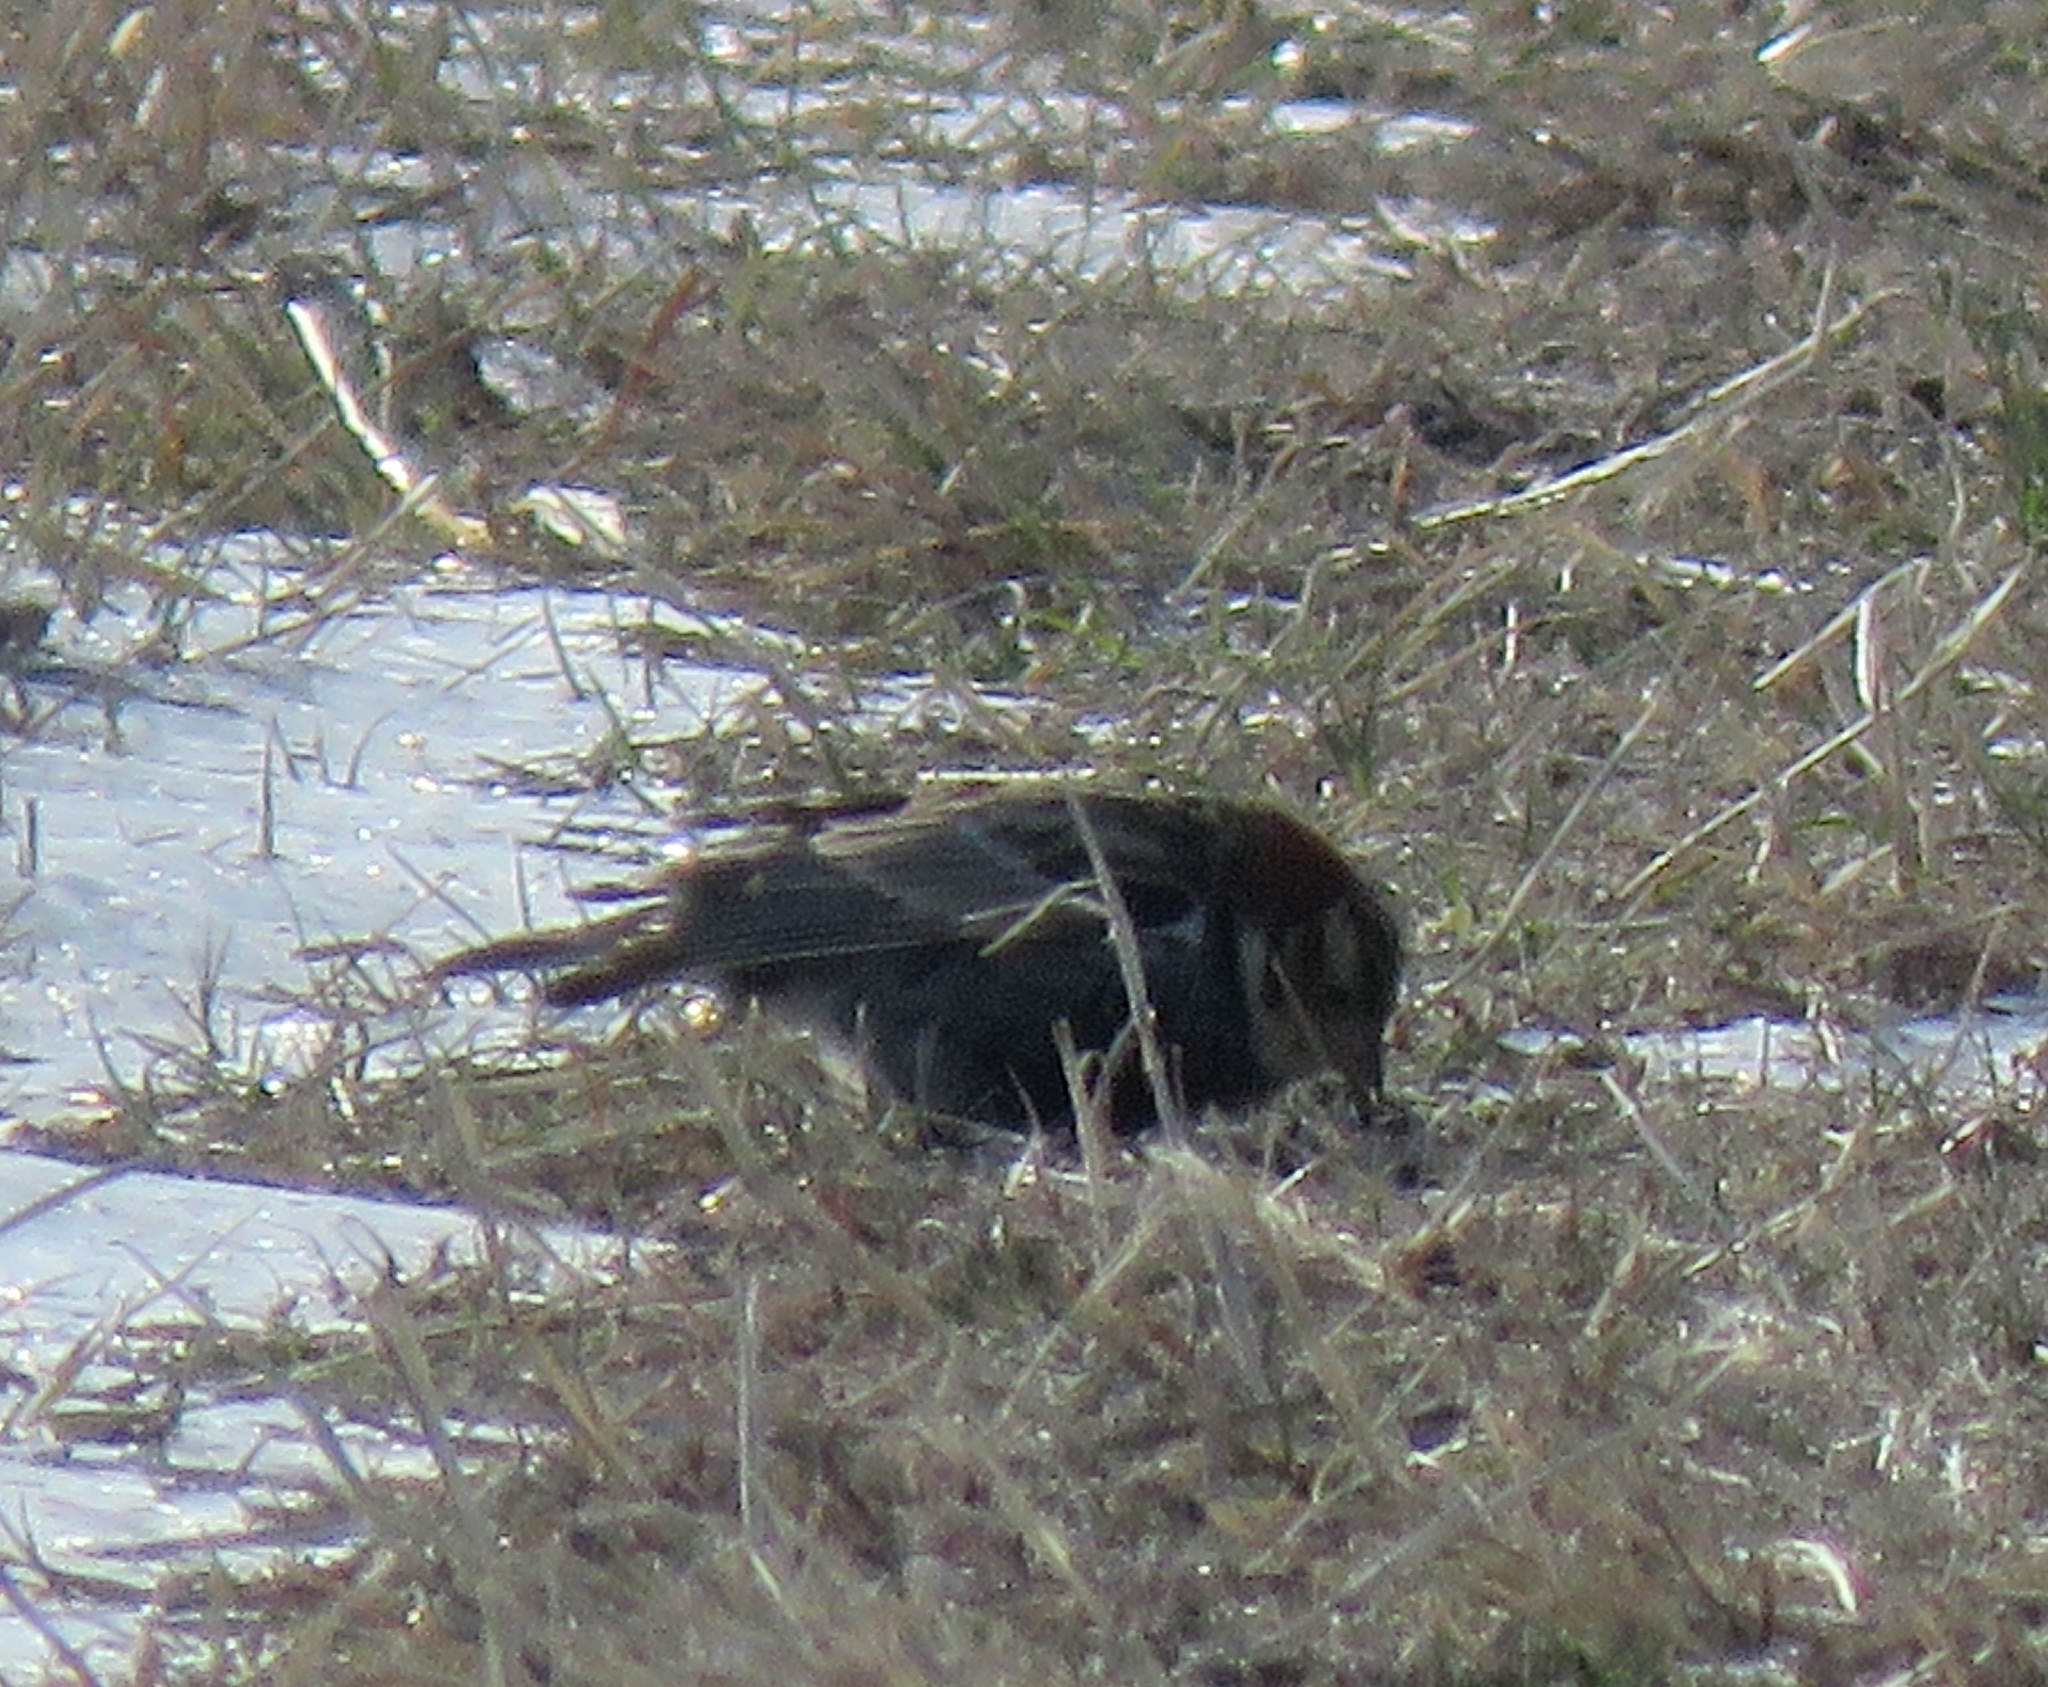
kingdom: Animalia
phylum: Chordata
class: Aves
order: Passeriformes
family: Calcariidae
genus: Calcarius
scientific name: Calcarius ornatus
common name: Chestnut-collared longspur
